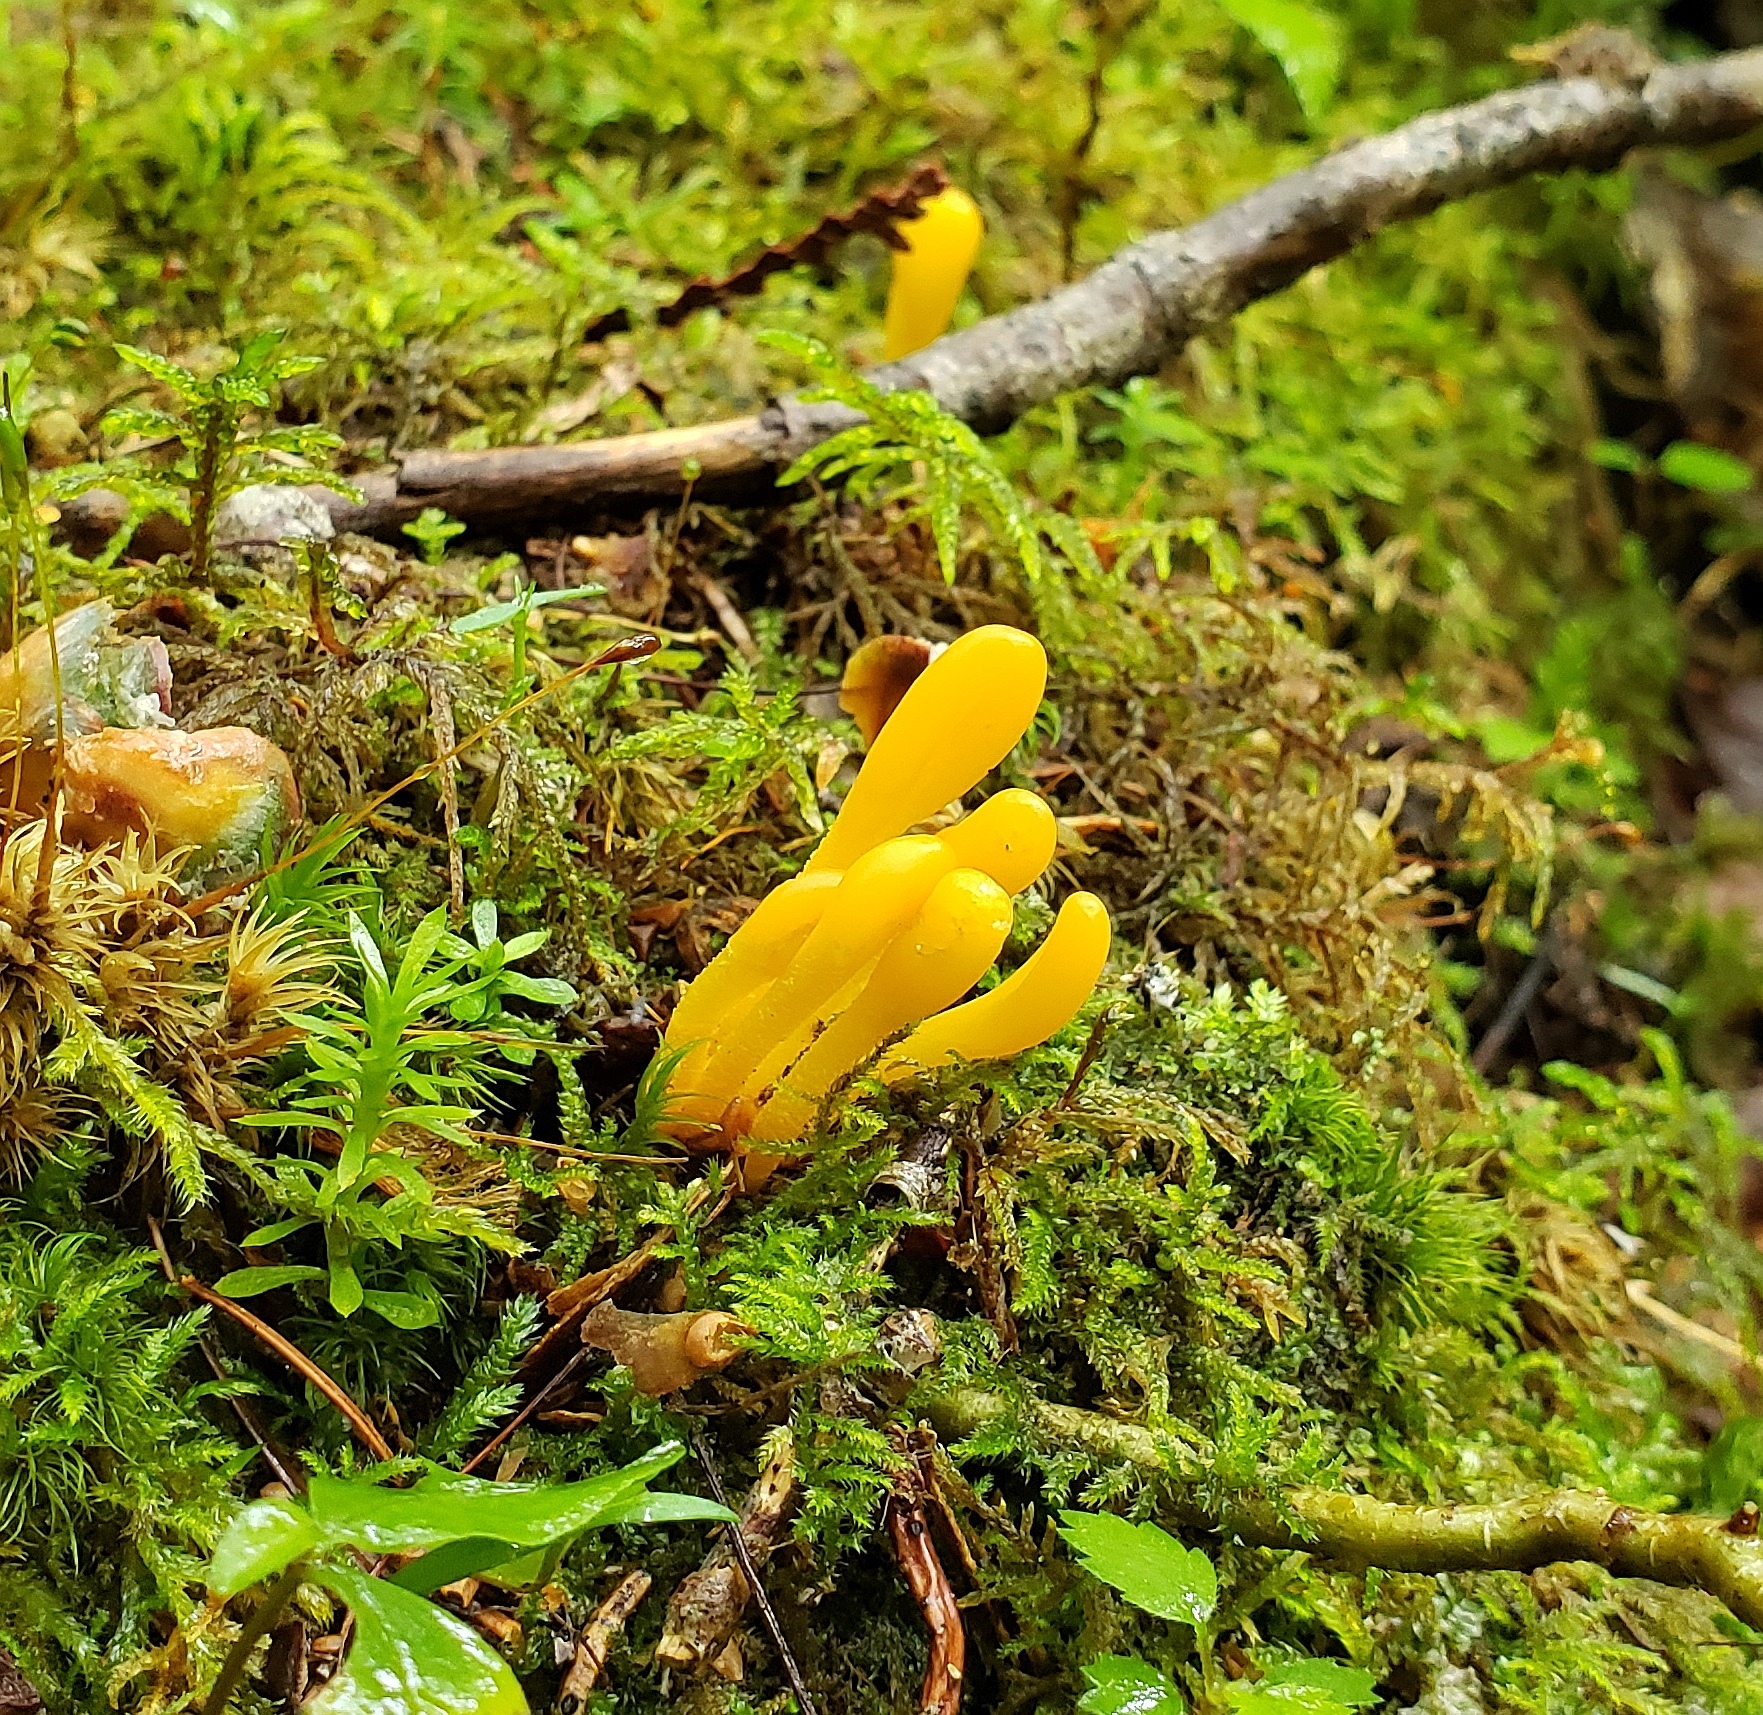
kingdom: Fungi
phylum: Ascomycota
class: Leotiomycetes
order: Leotiales
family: Leotiaceae
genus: Microglossum
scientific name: Microglossum rufum
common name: Orange earthtongue
